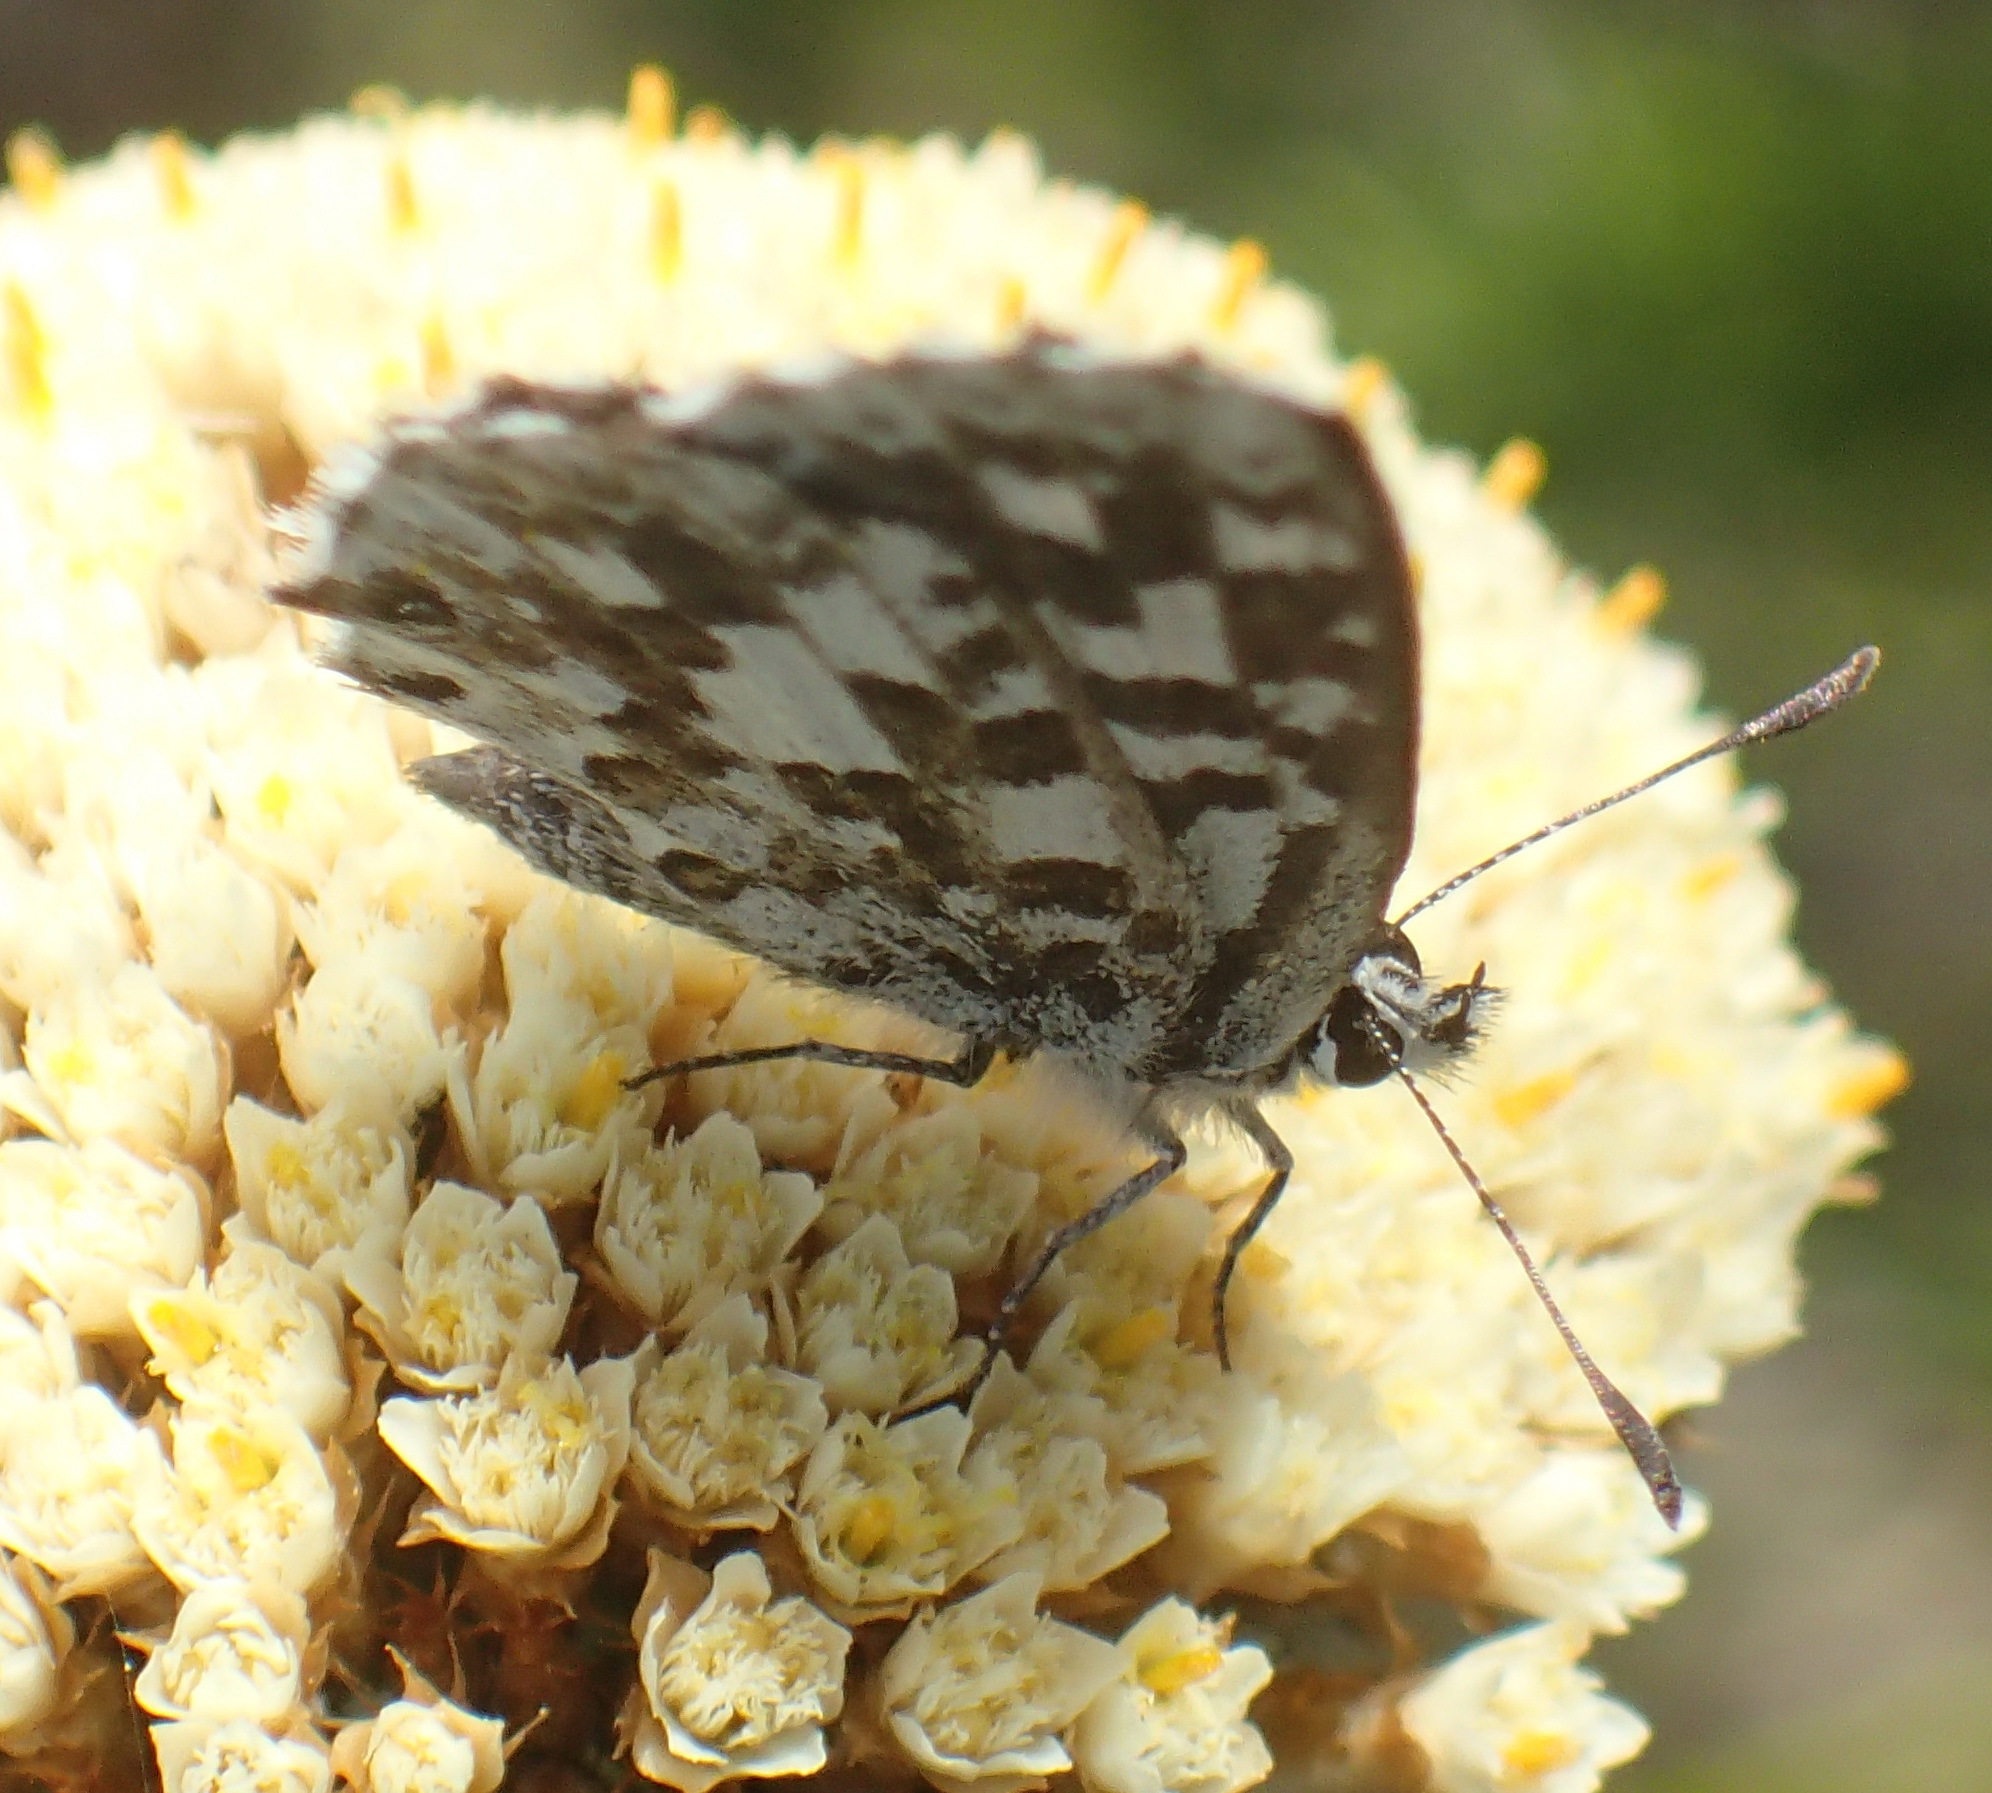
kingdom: Animalia
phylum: Arthropoda
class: Insecta
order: Lepidoptera
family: Lycaenidae
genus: Tarucus
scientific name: Tarucus thespis
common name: Vivid dotted blue
